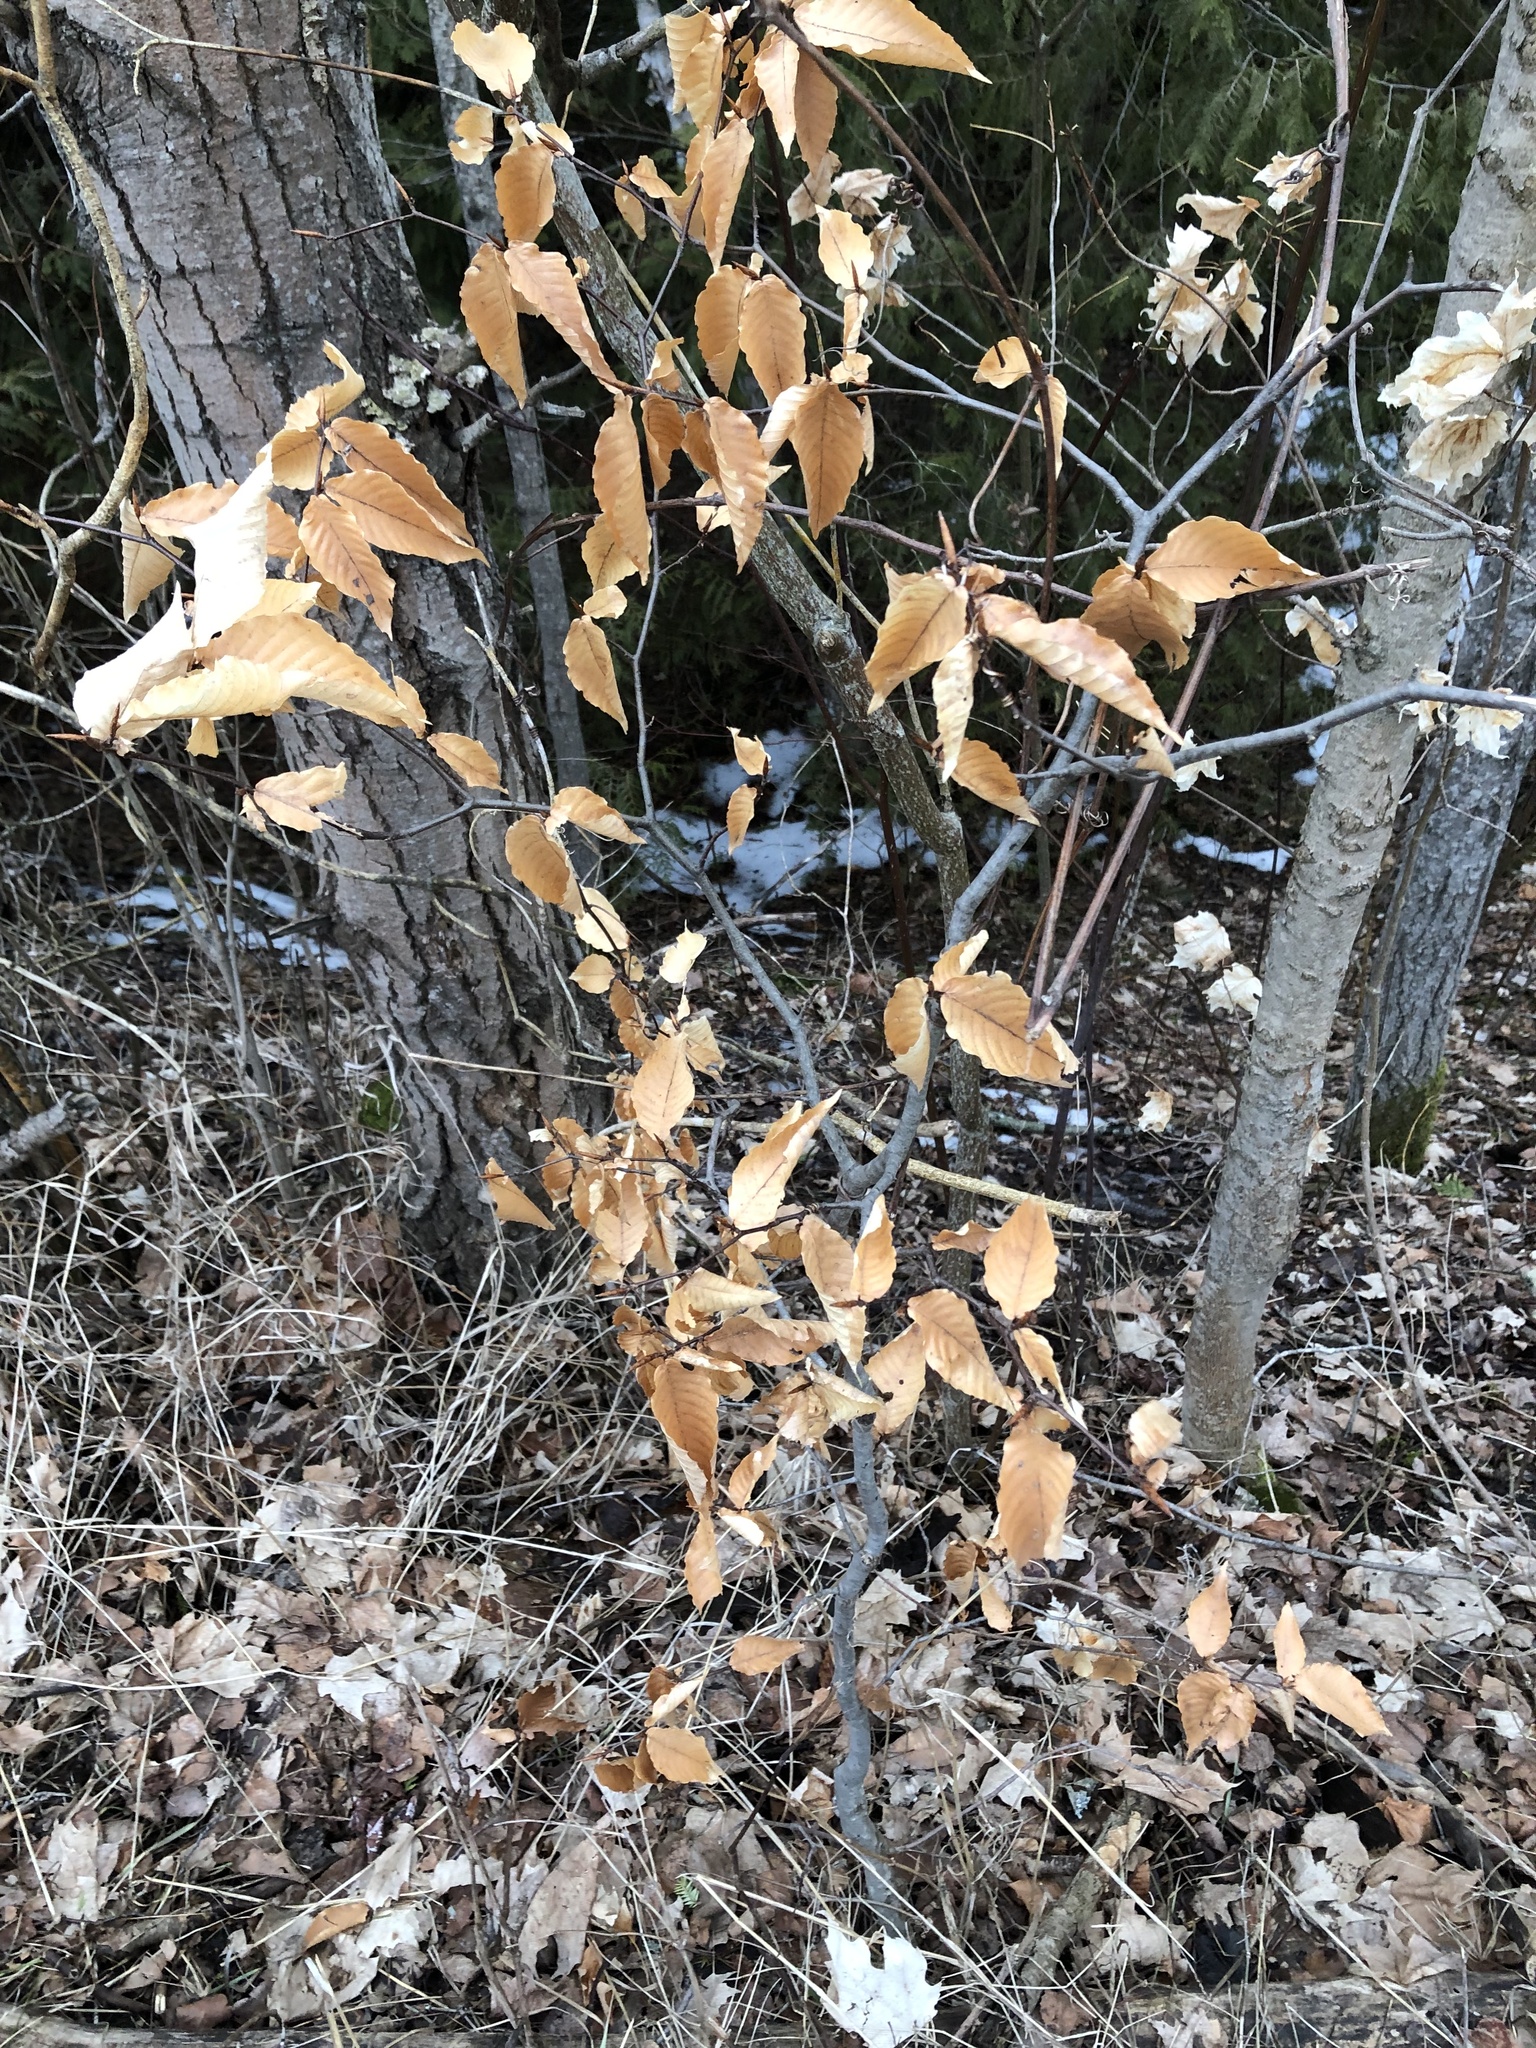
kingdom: Plantae
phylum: Tracheophyta
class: Magnoliopsida
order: Fagales
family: Fagaceae
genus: Fagus
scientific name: Fagus grandifolia
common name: American beech
